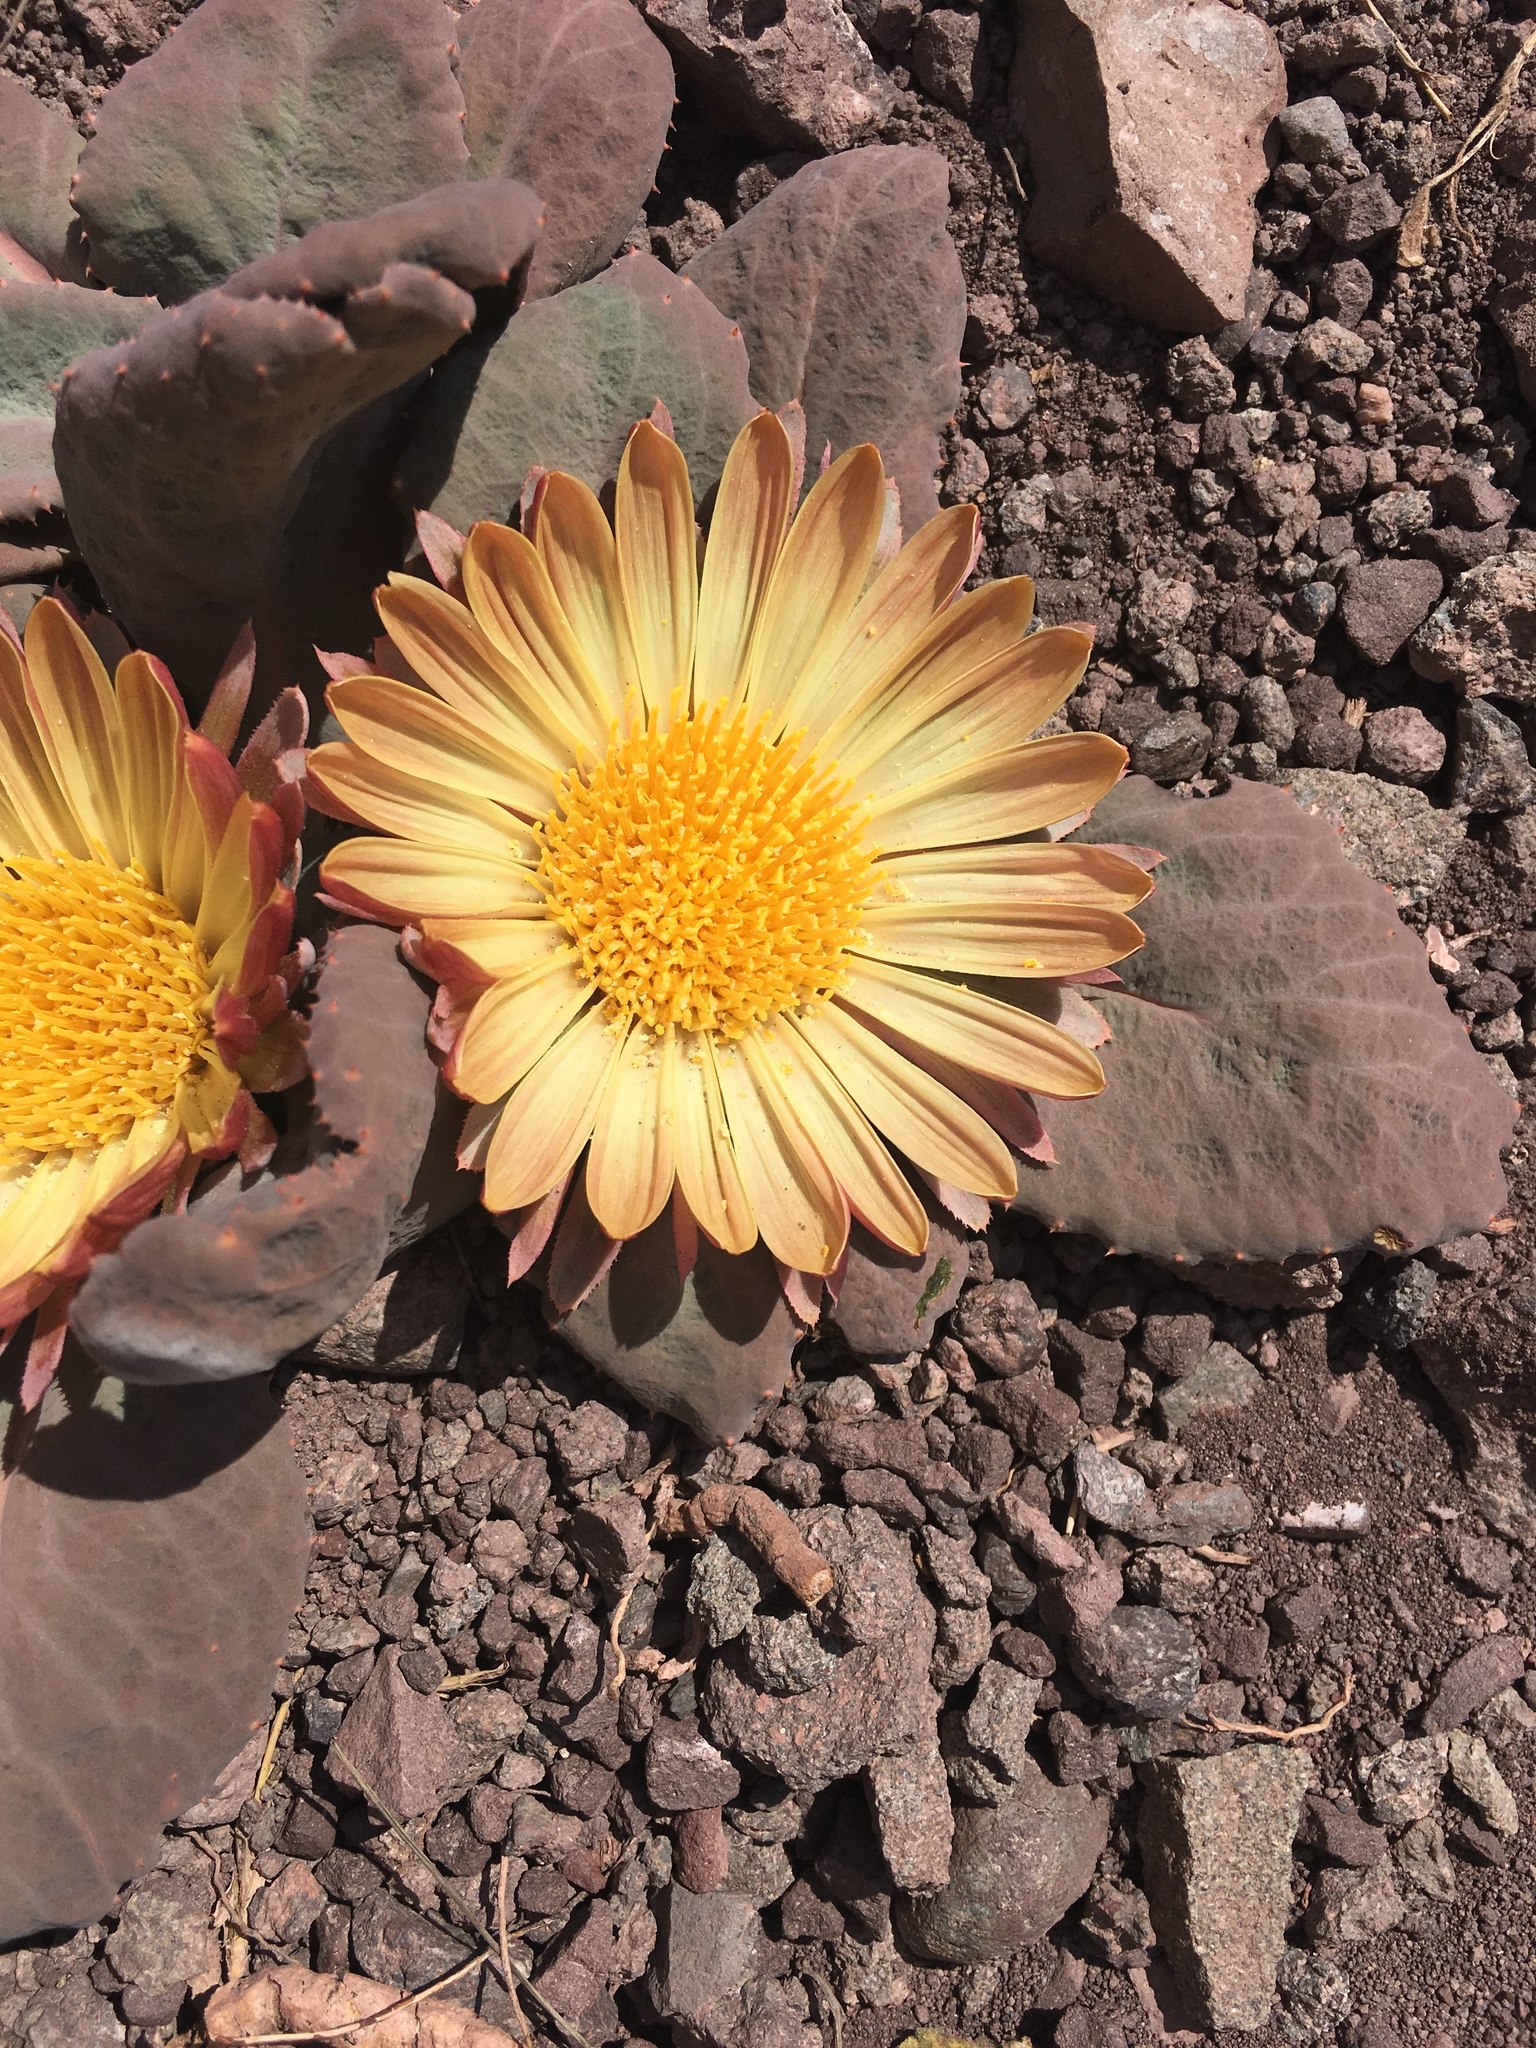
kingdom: Plantae
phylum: Tracheophyta
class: Magnoliopsida
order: Asterales
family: Asteraceae
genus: Pachylaena
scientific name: Pachylaena atriplicifolia
